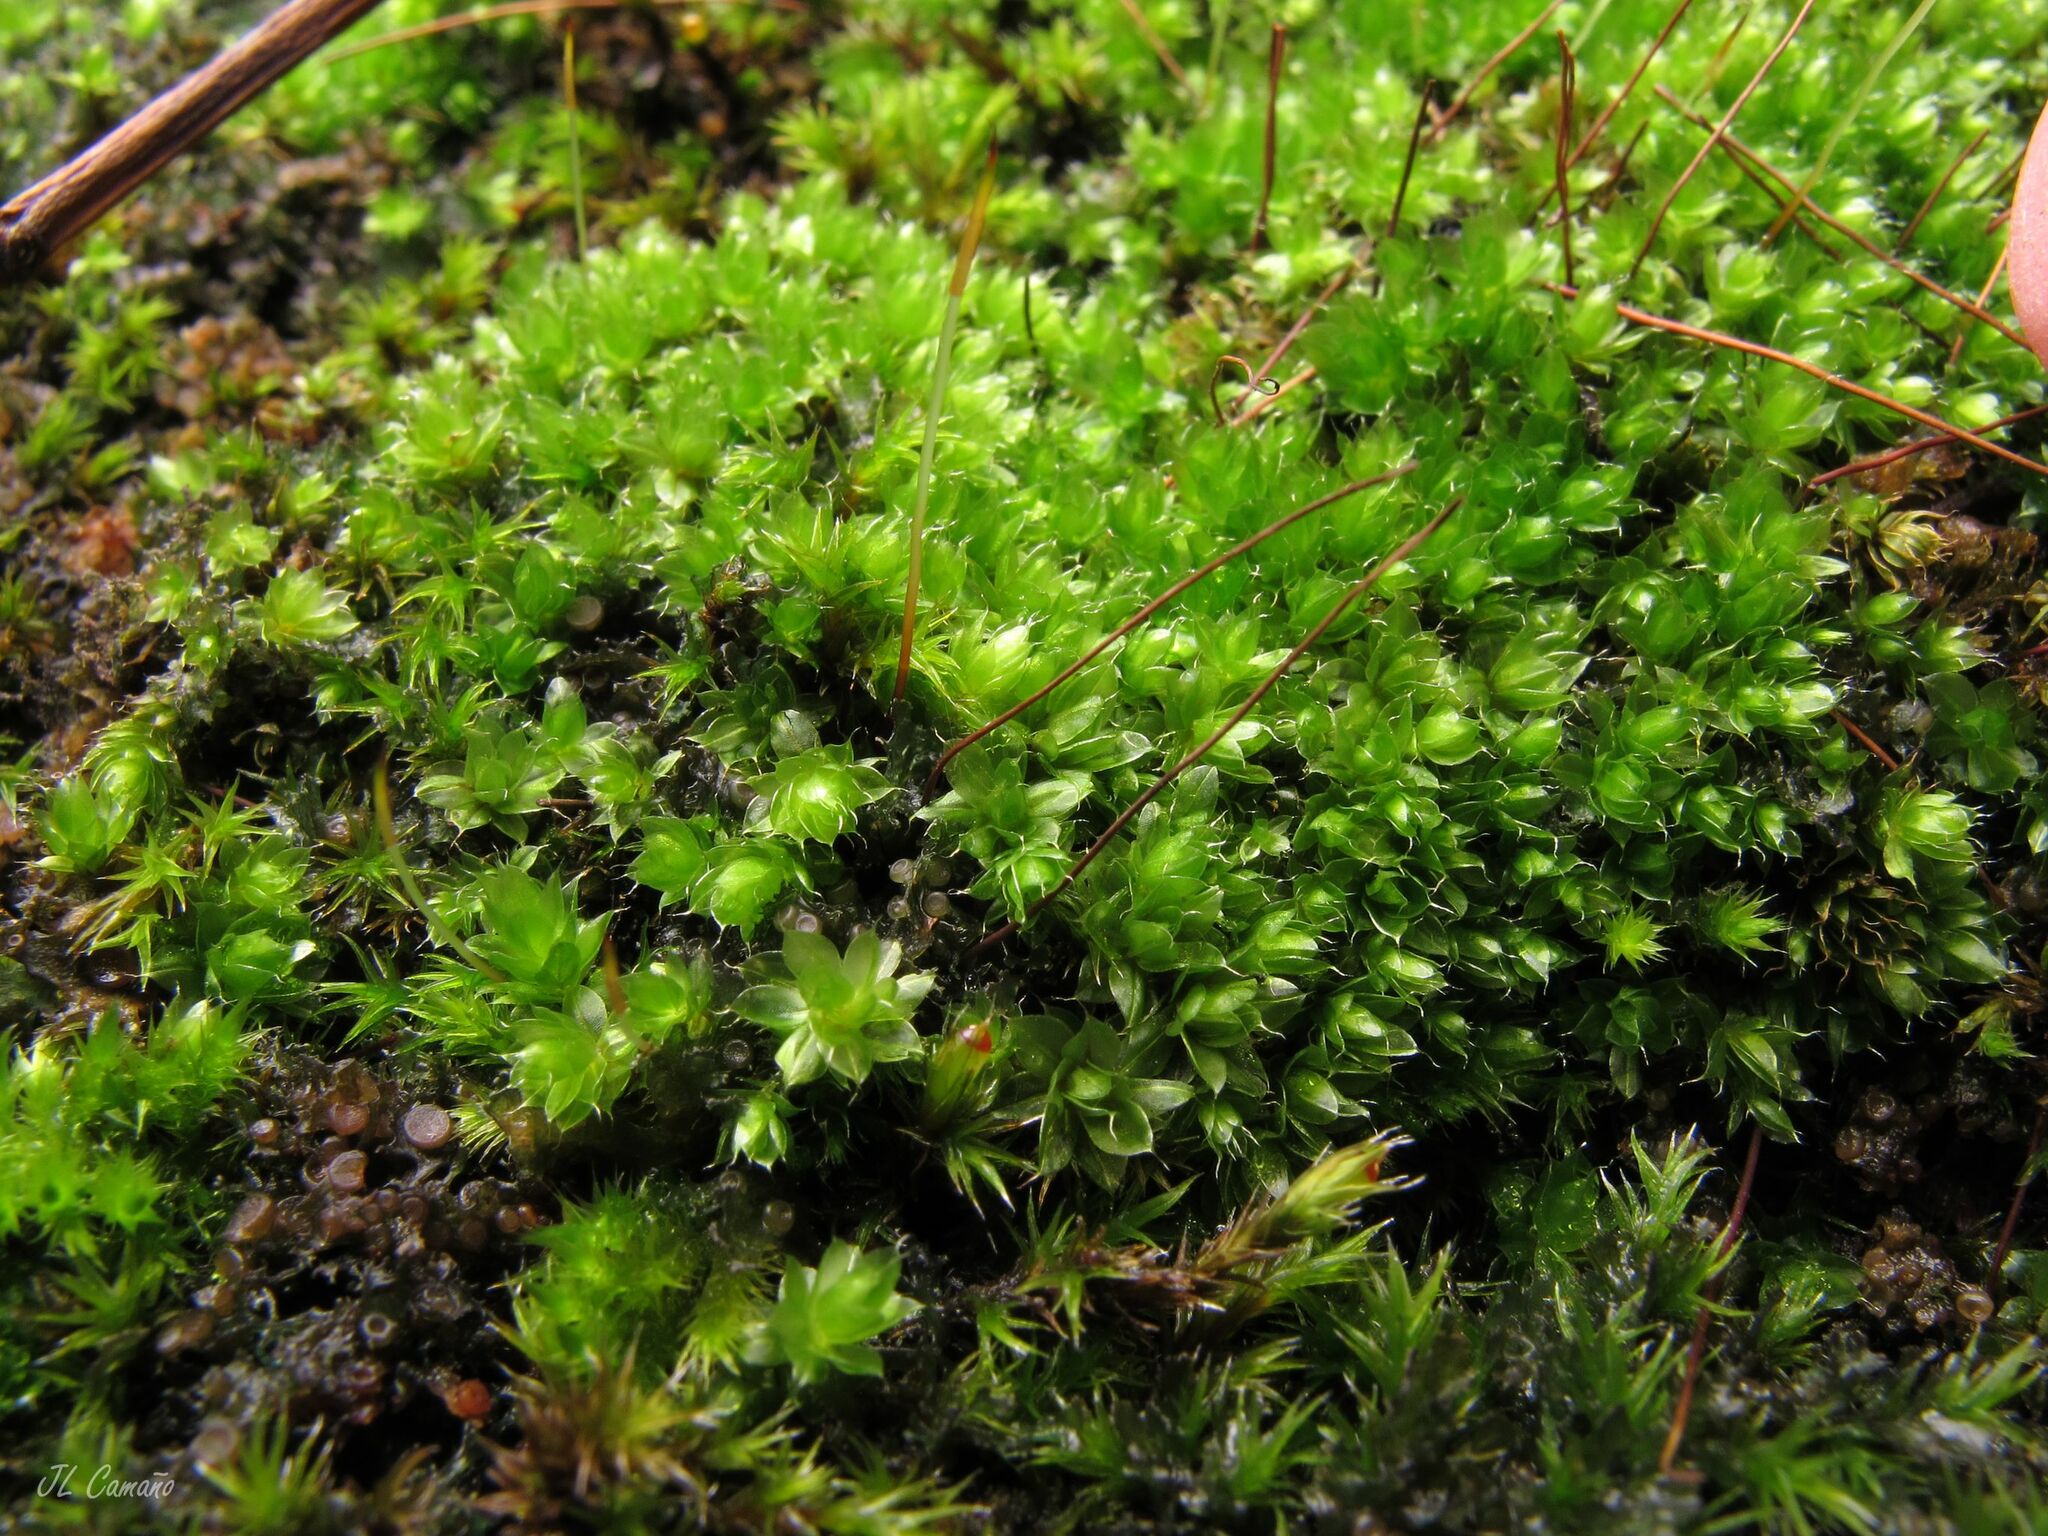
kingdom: Plantae
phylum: Bryophyta
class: Bryopsida
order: Bryales
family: Bryaceae
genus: Rosulabryum
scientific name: Rosulabryum capillare
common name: Capillary thread-moss
